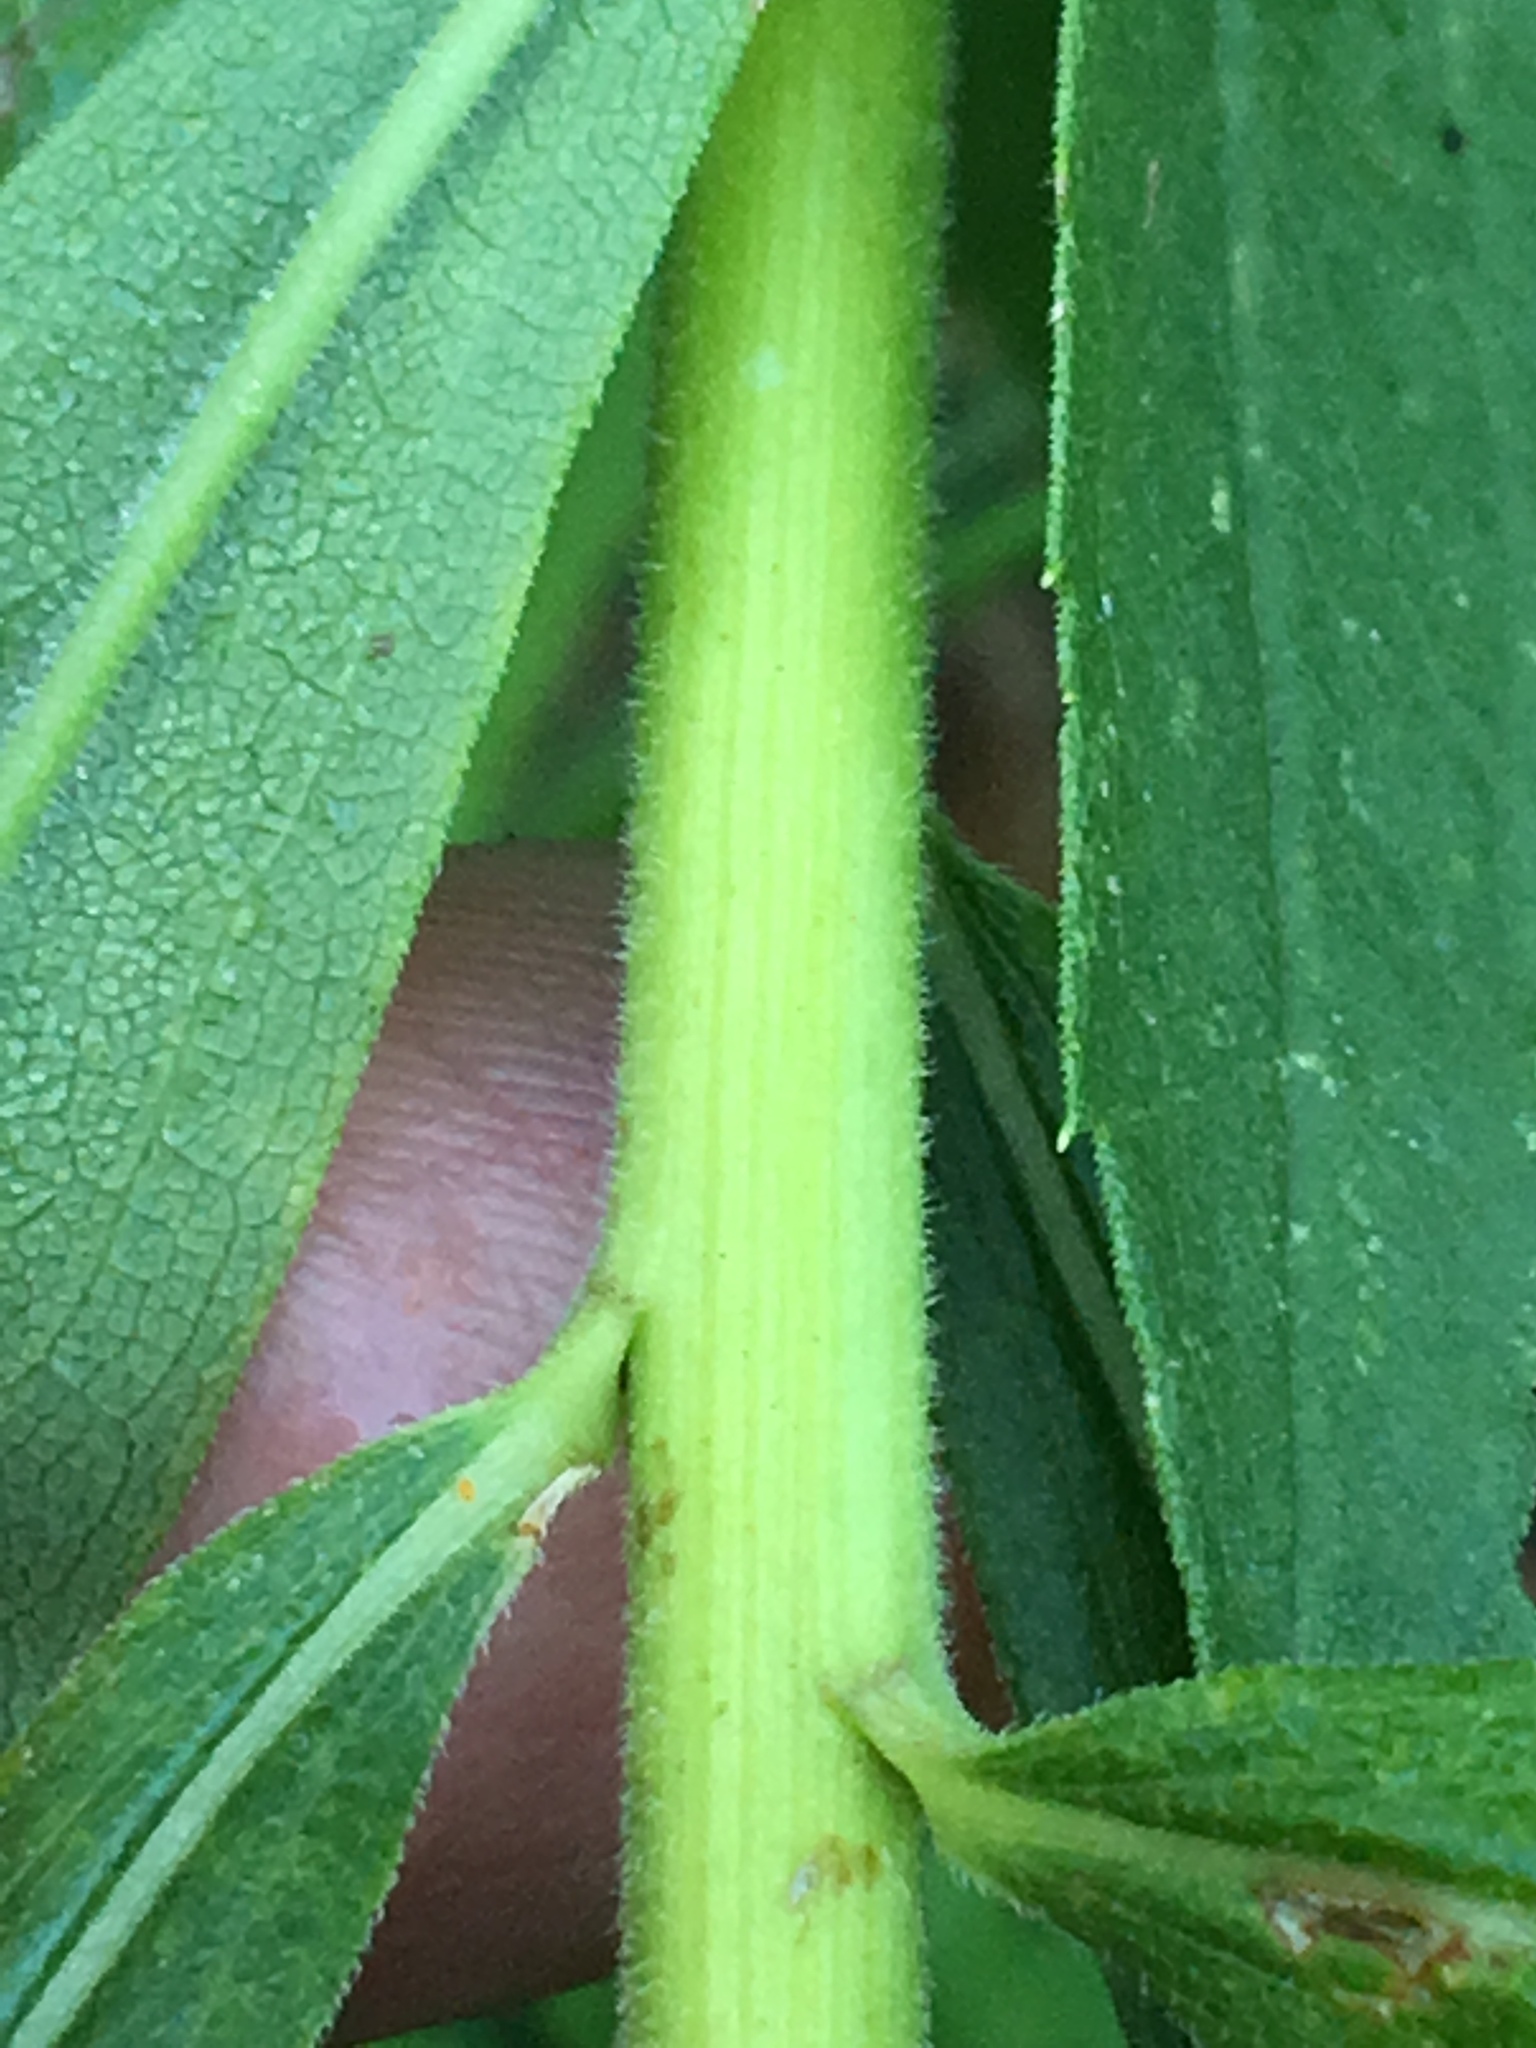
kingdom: Plantae
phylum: Tracheophyta
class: Magnoliopsida
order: Asterales
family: Asteraceae
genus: Solidago
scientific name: Solidago altissima
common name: Late goldenrod
